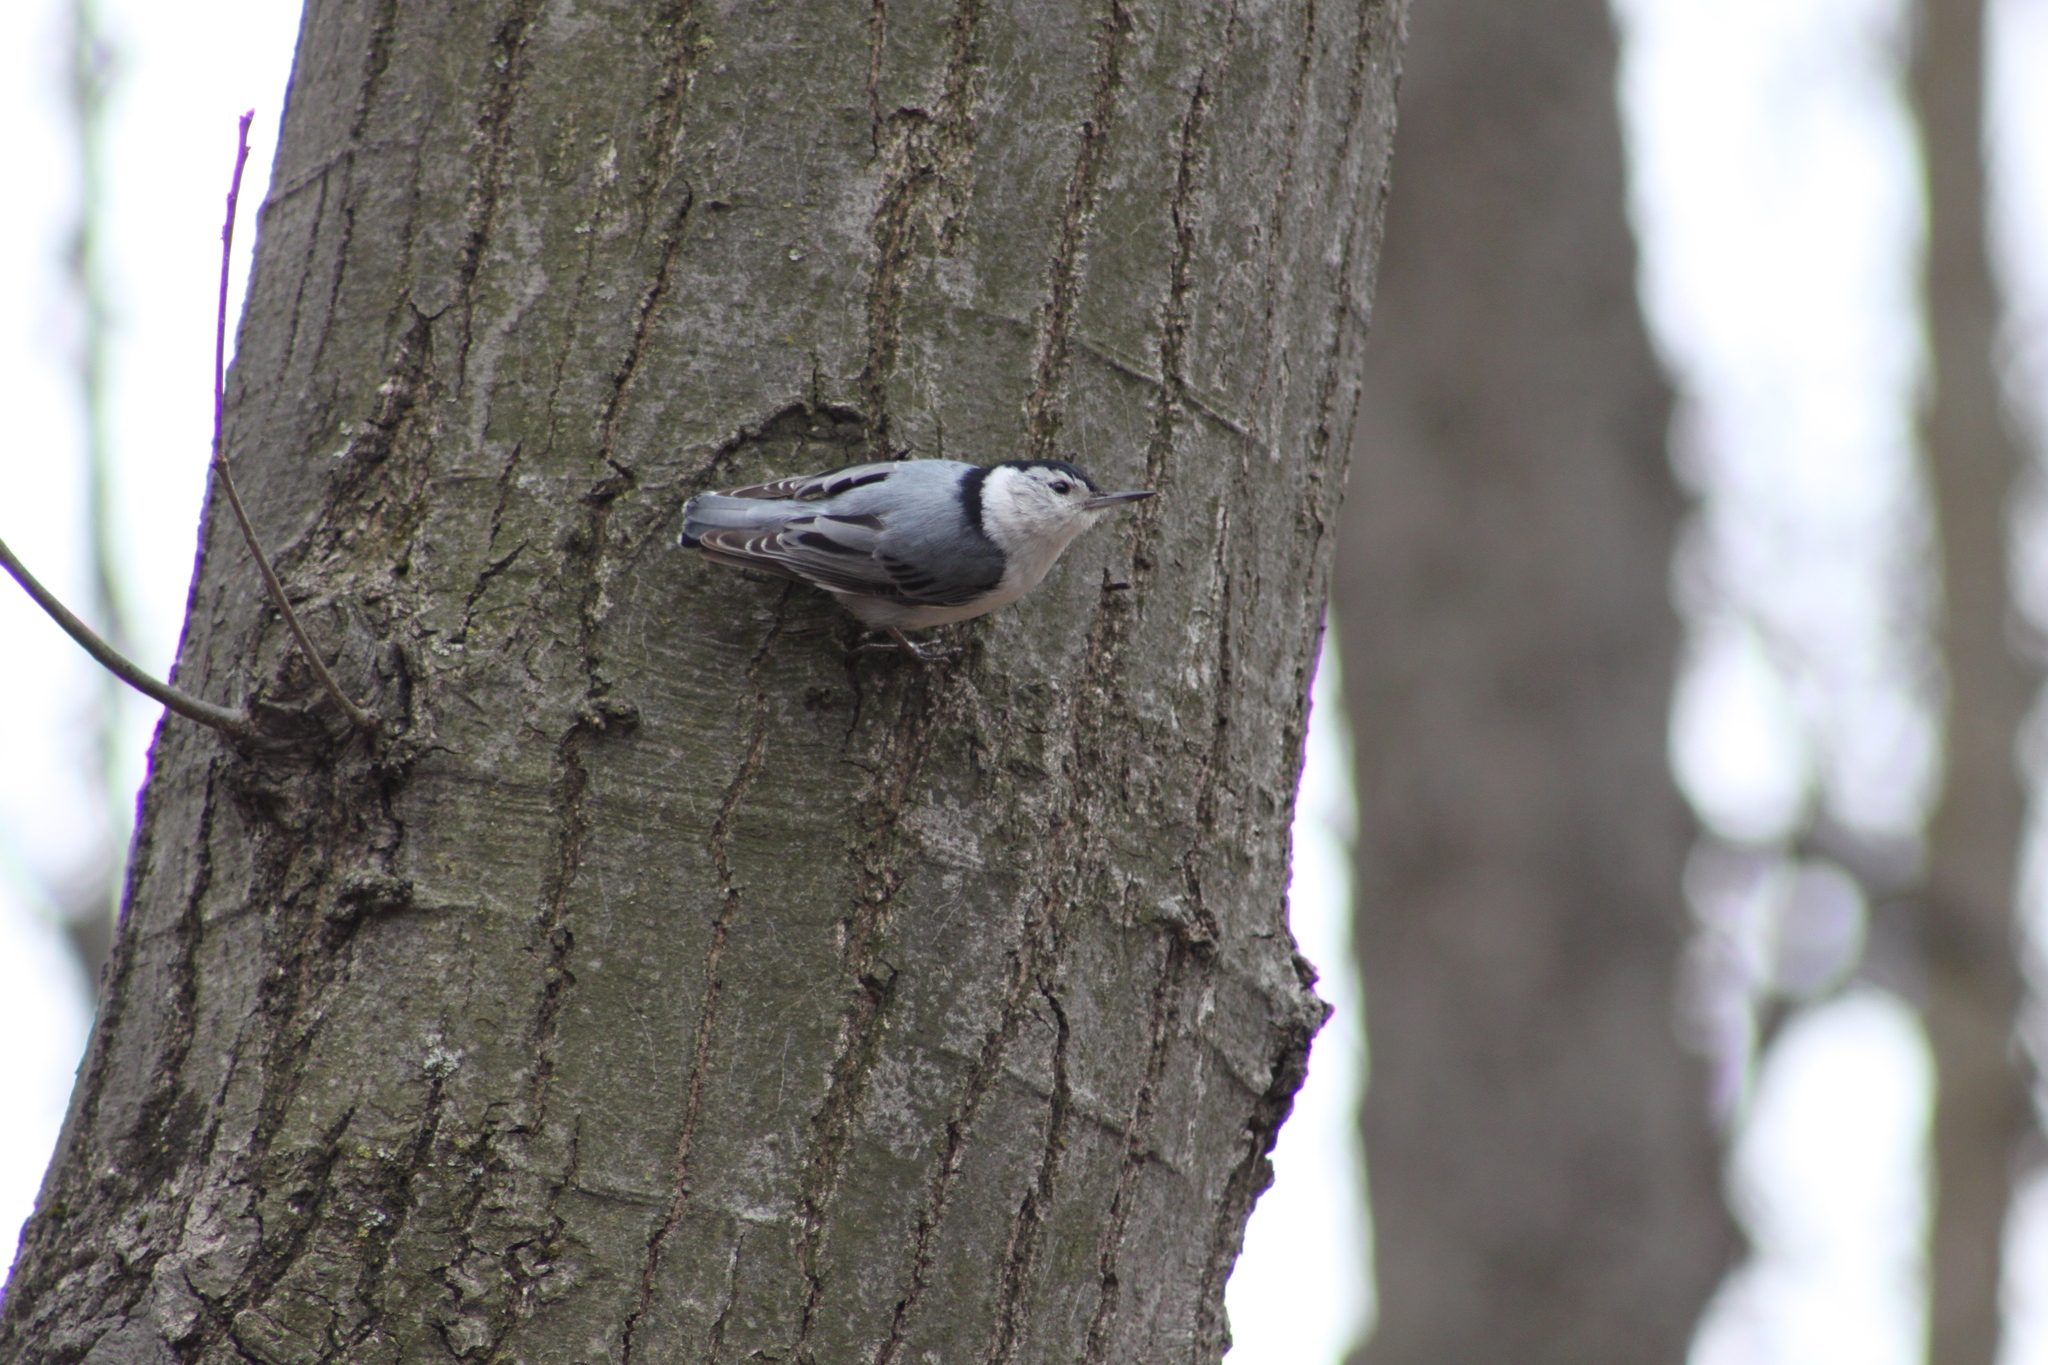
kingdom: Animalia
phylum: Chordata
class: Aves
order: Passeriformes
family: Sittidae
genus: Sitta
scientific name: Sitta carolinensis
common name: White-breasted nuthatch
